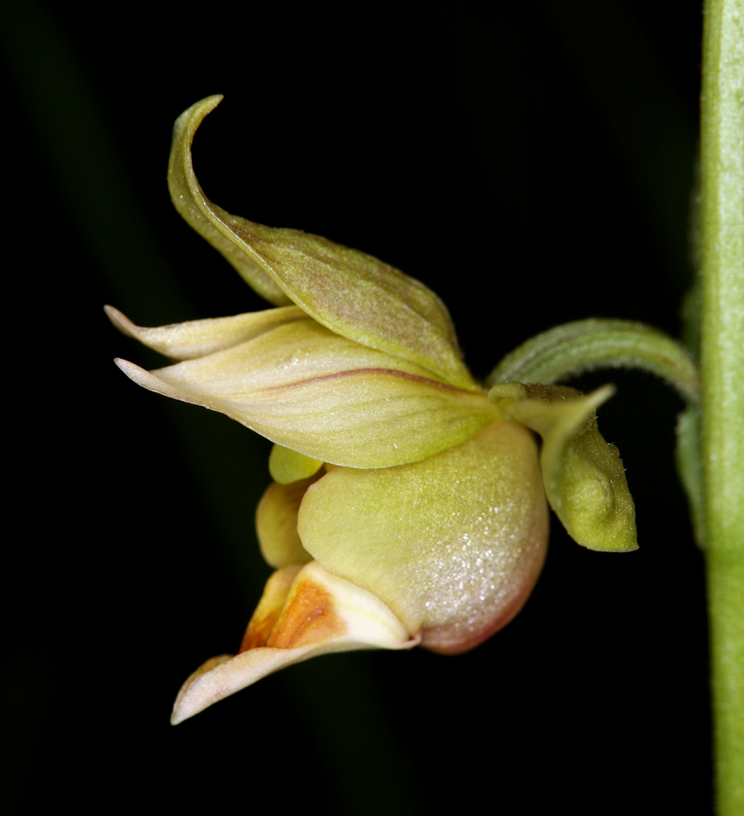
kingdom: Plantae
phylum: Tracheophyta
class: Liliopsida
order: Asparagales
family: Orchidaceae
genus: Epipactis
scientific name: Epipactis gigantea
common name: Chatterbox
